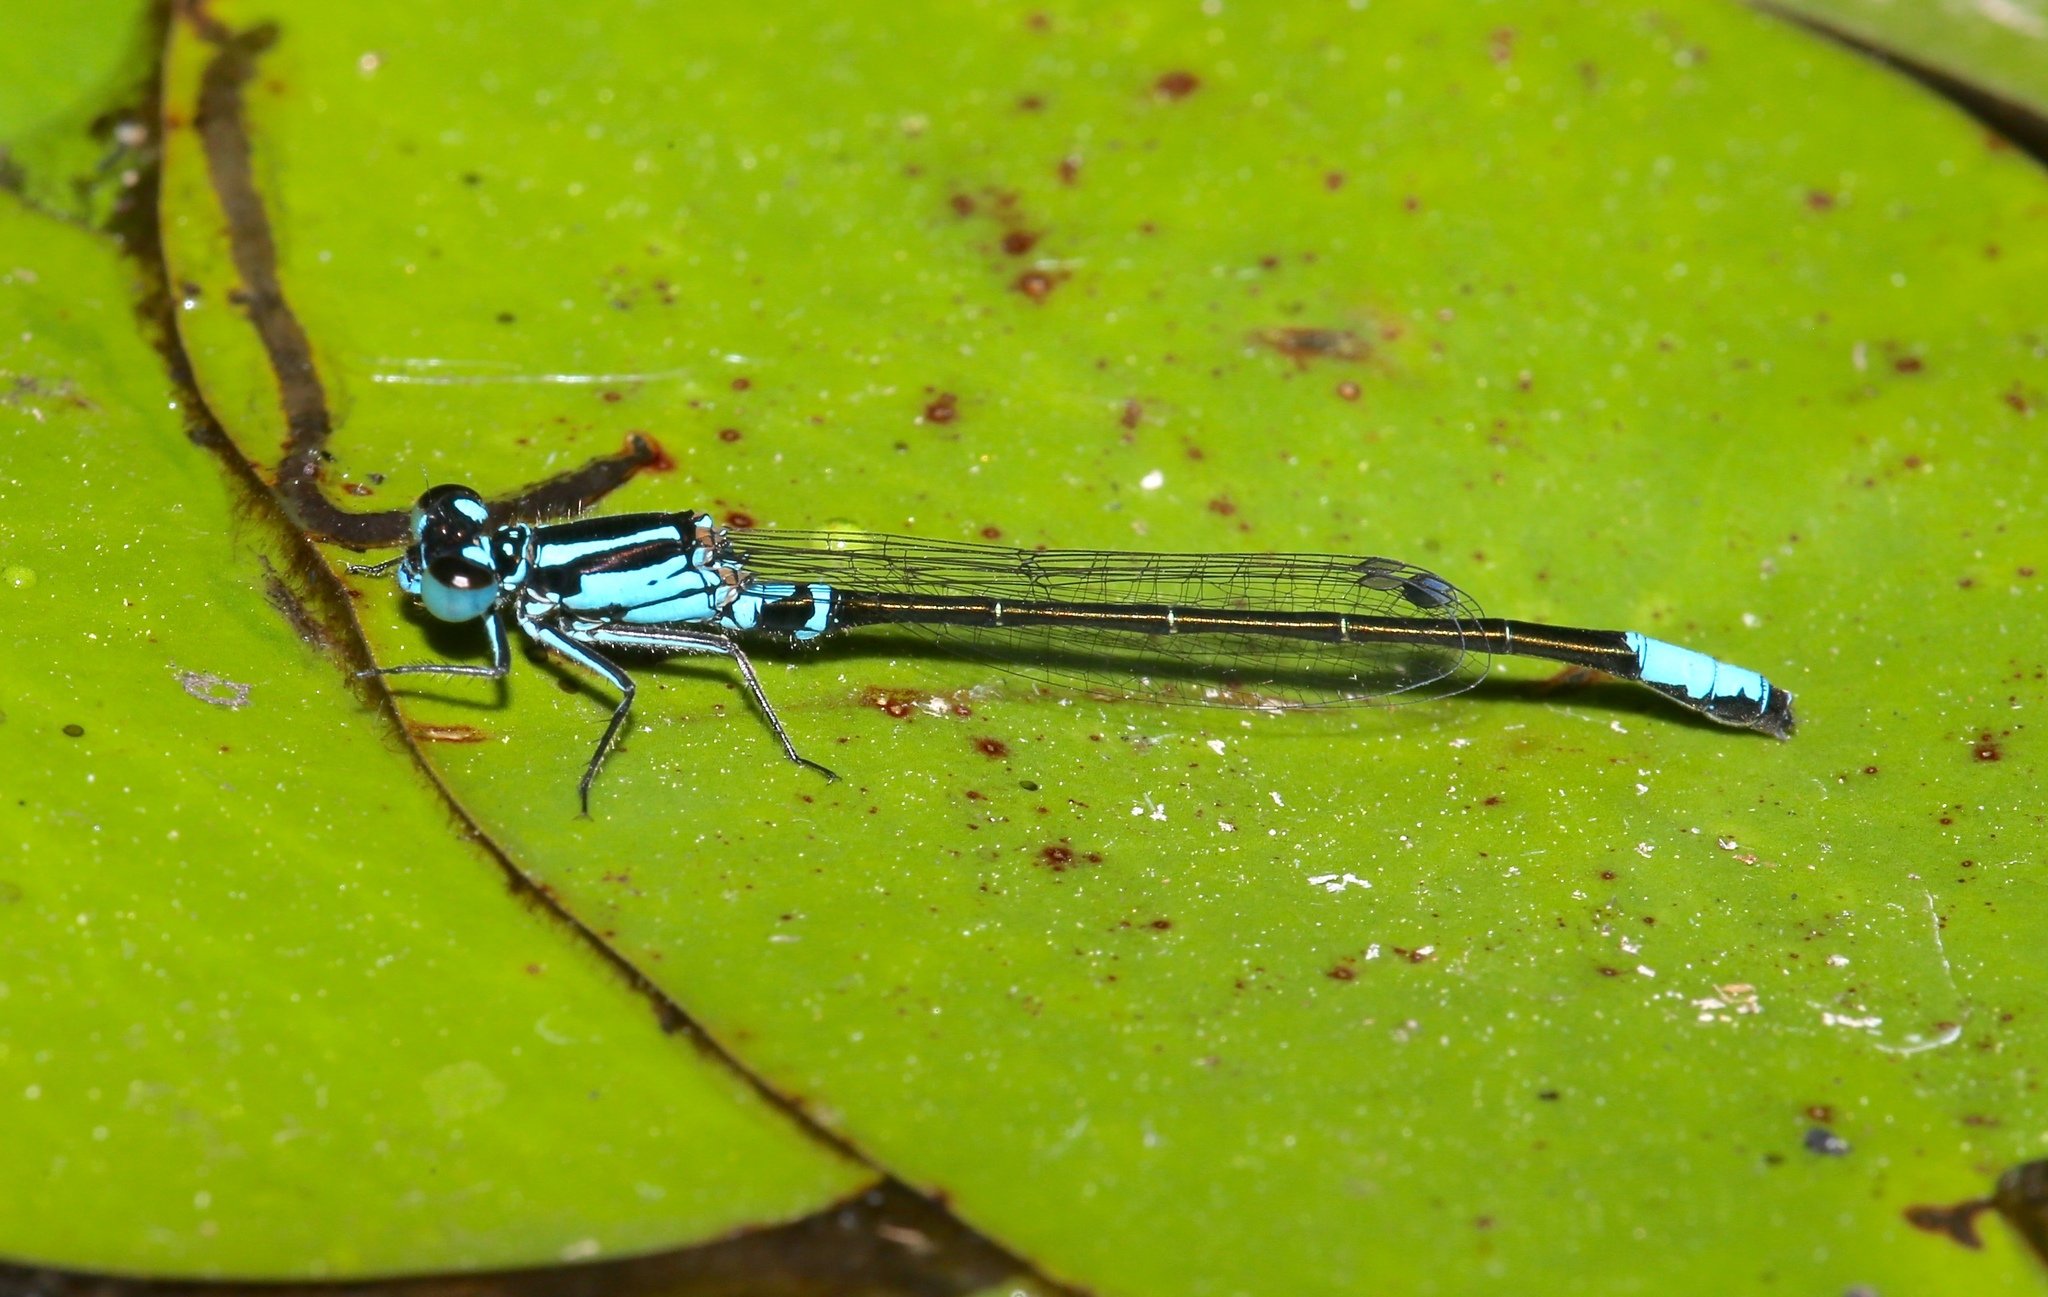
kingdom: Animalia
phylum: Arthropoda
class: Insecta
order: Odonata
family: Coenagrionidae
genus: Ischnura
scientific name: Ischnura kellicotti
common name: Lilypad forktail
